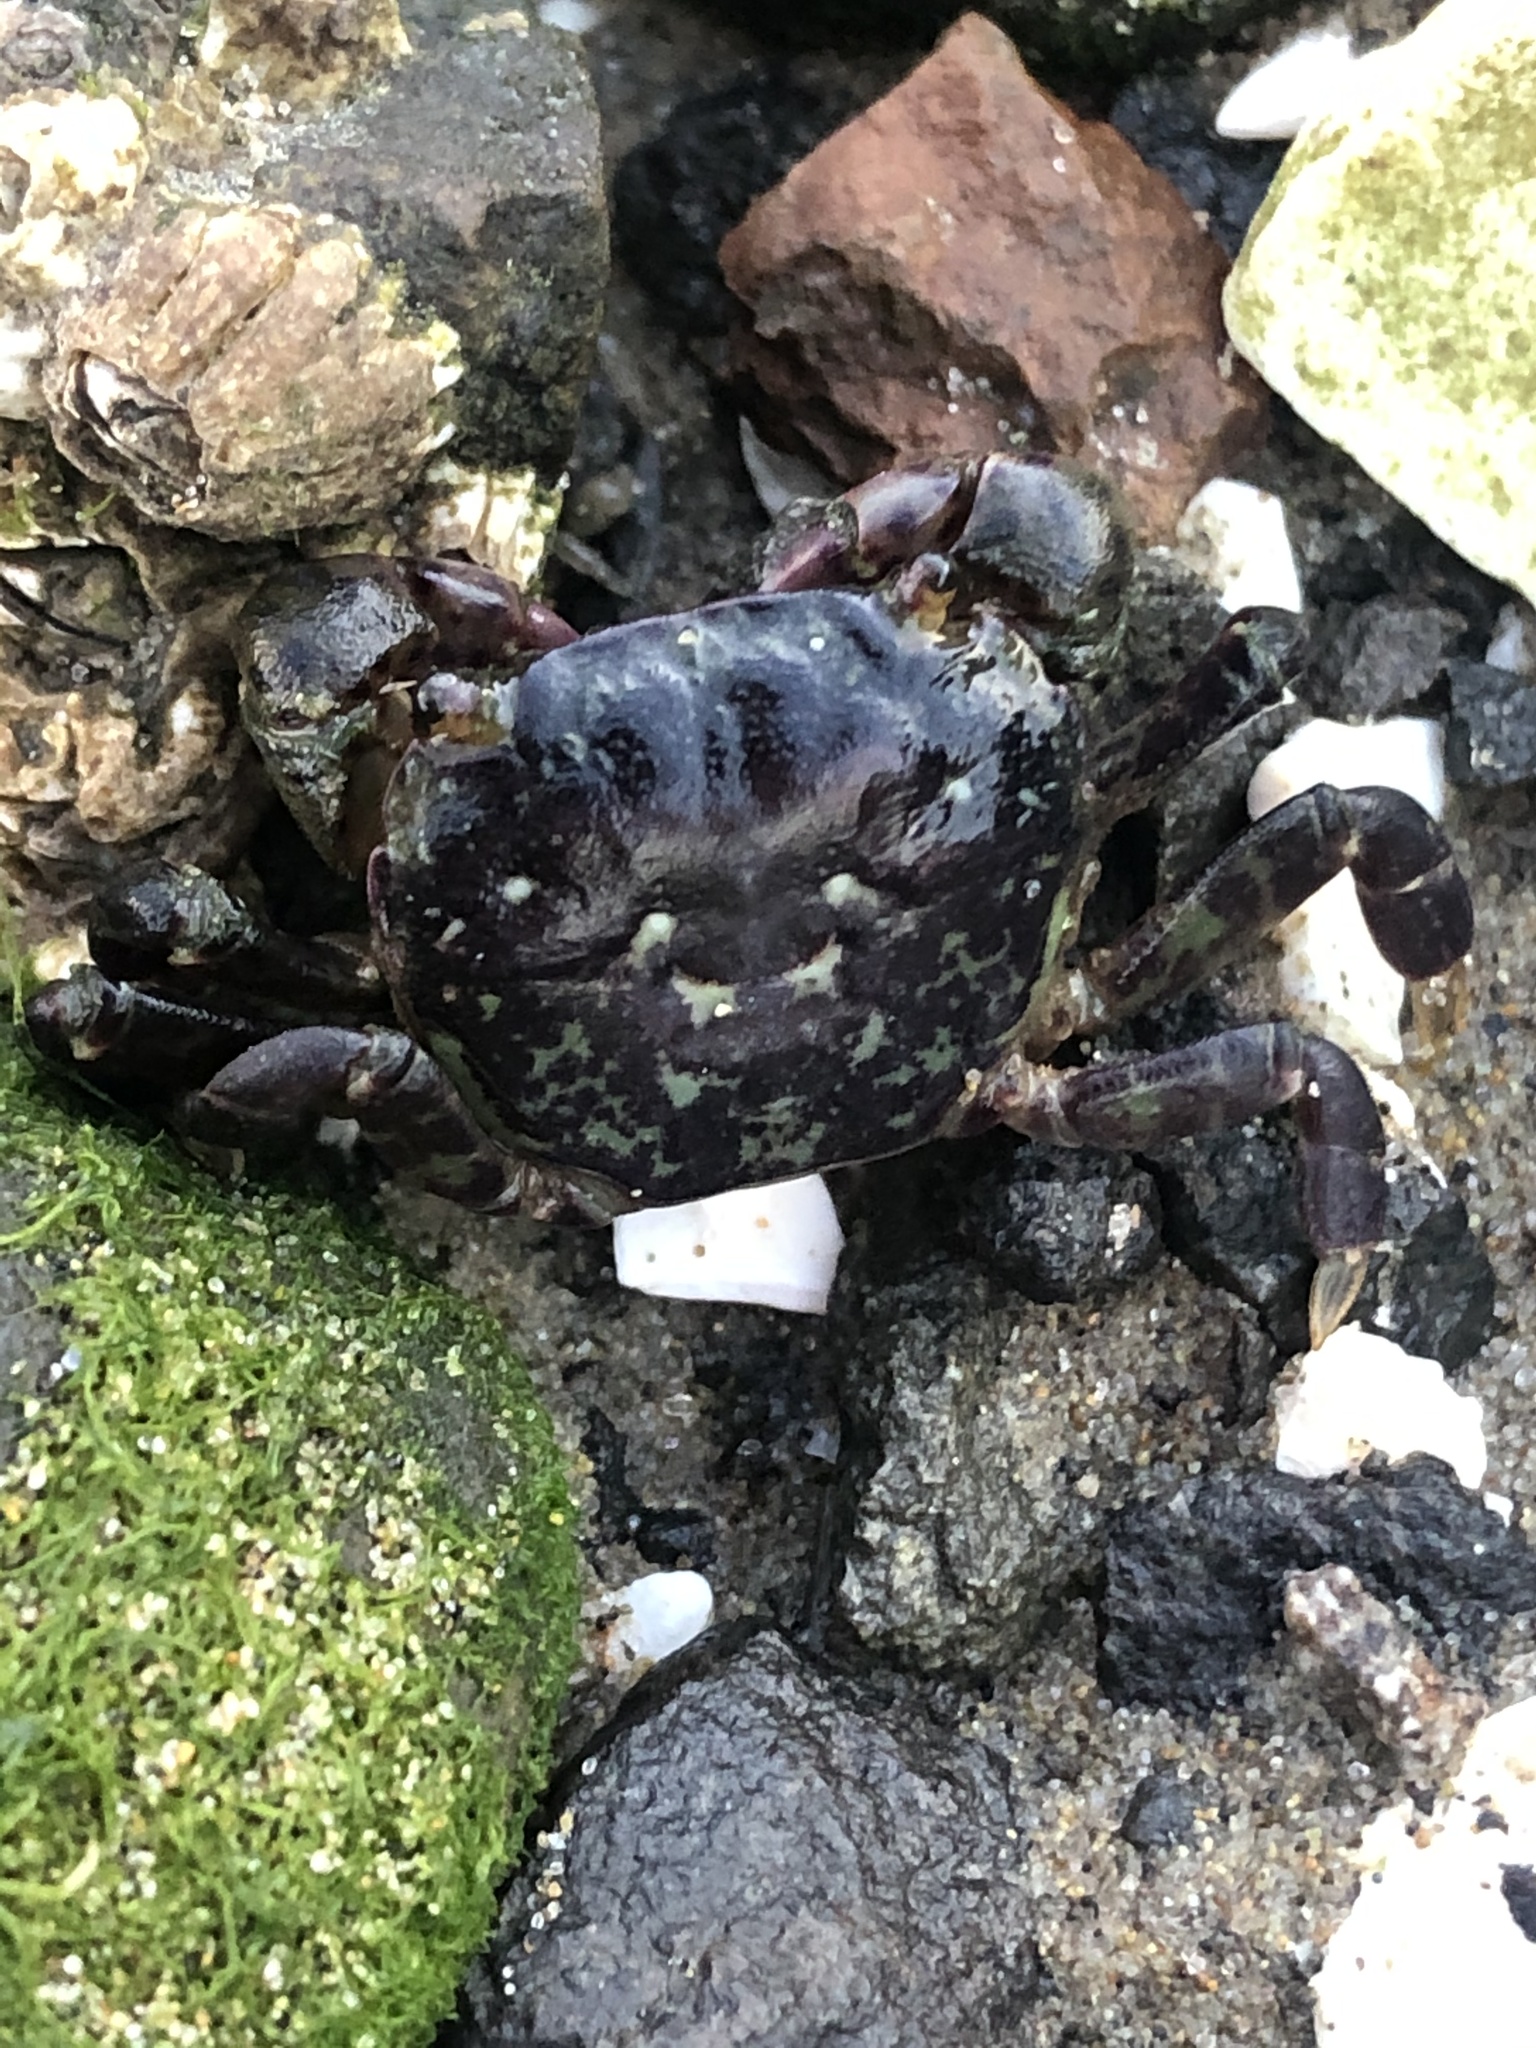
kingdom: Animalia
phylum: Arthropoda
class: Malacostraca
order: Decapoda
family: Varunidae
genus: Hemigrapsus
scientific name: Hemigrapsus nudus
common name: Purple shore crab
